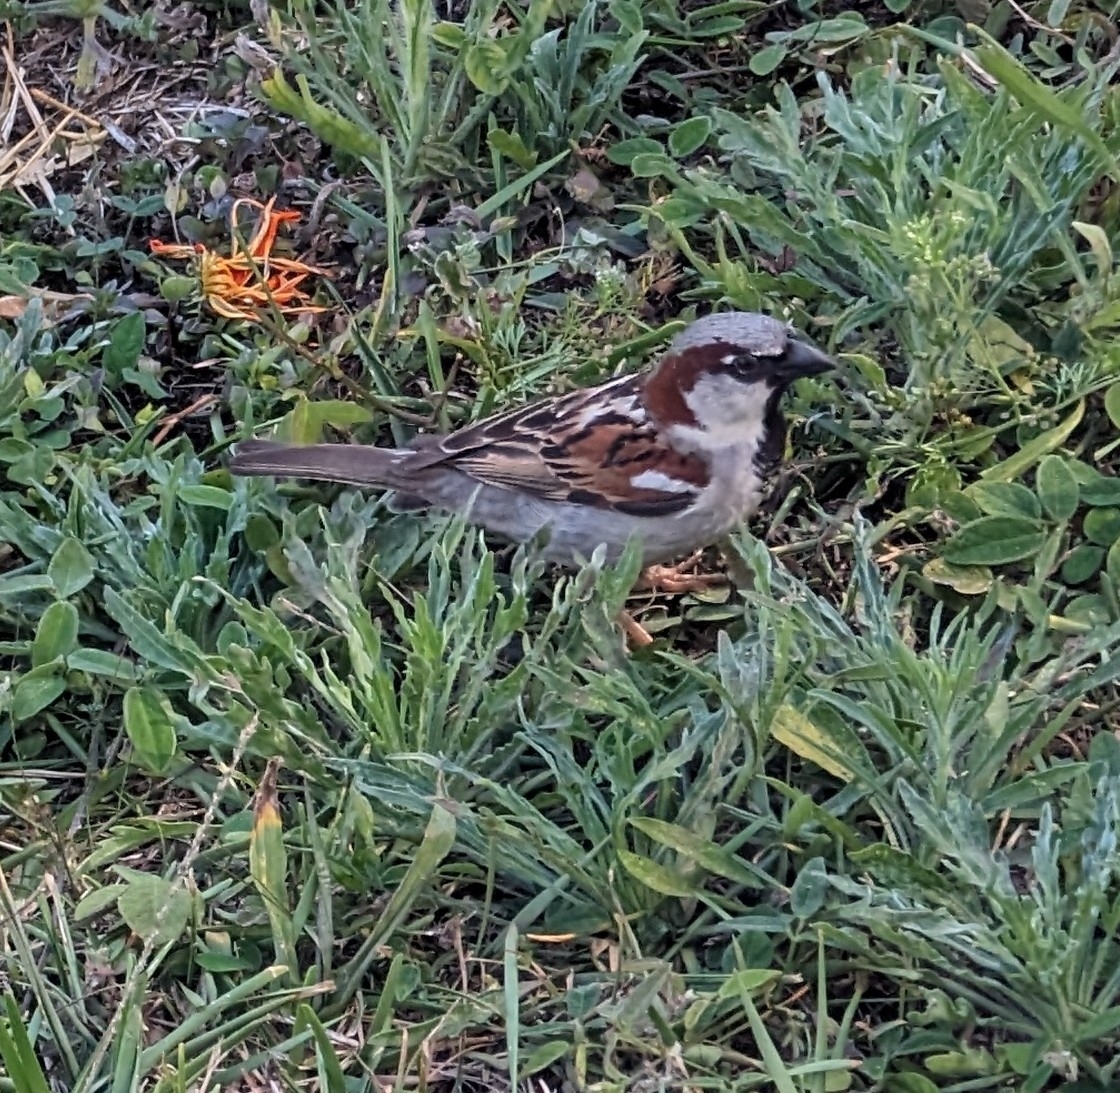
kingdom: Animalia
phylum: Chordata
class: Aves
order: Passeriformes
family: Passeridae
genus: Passer
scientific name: Passer domesticus
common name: House sparrow
